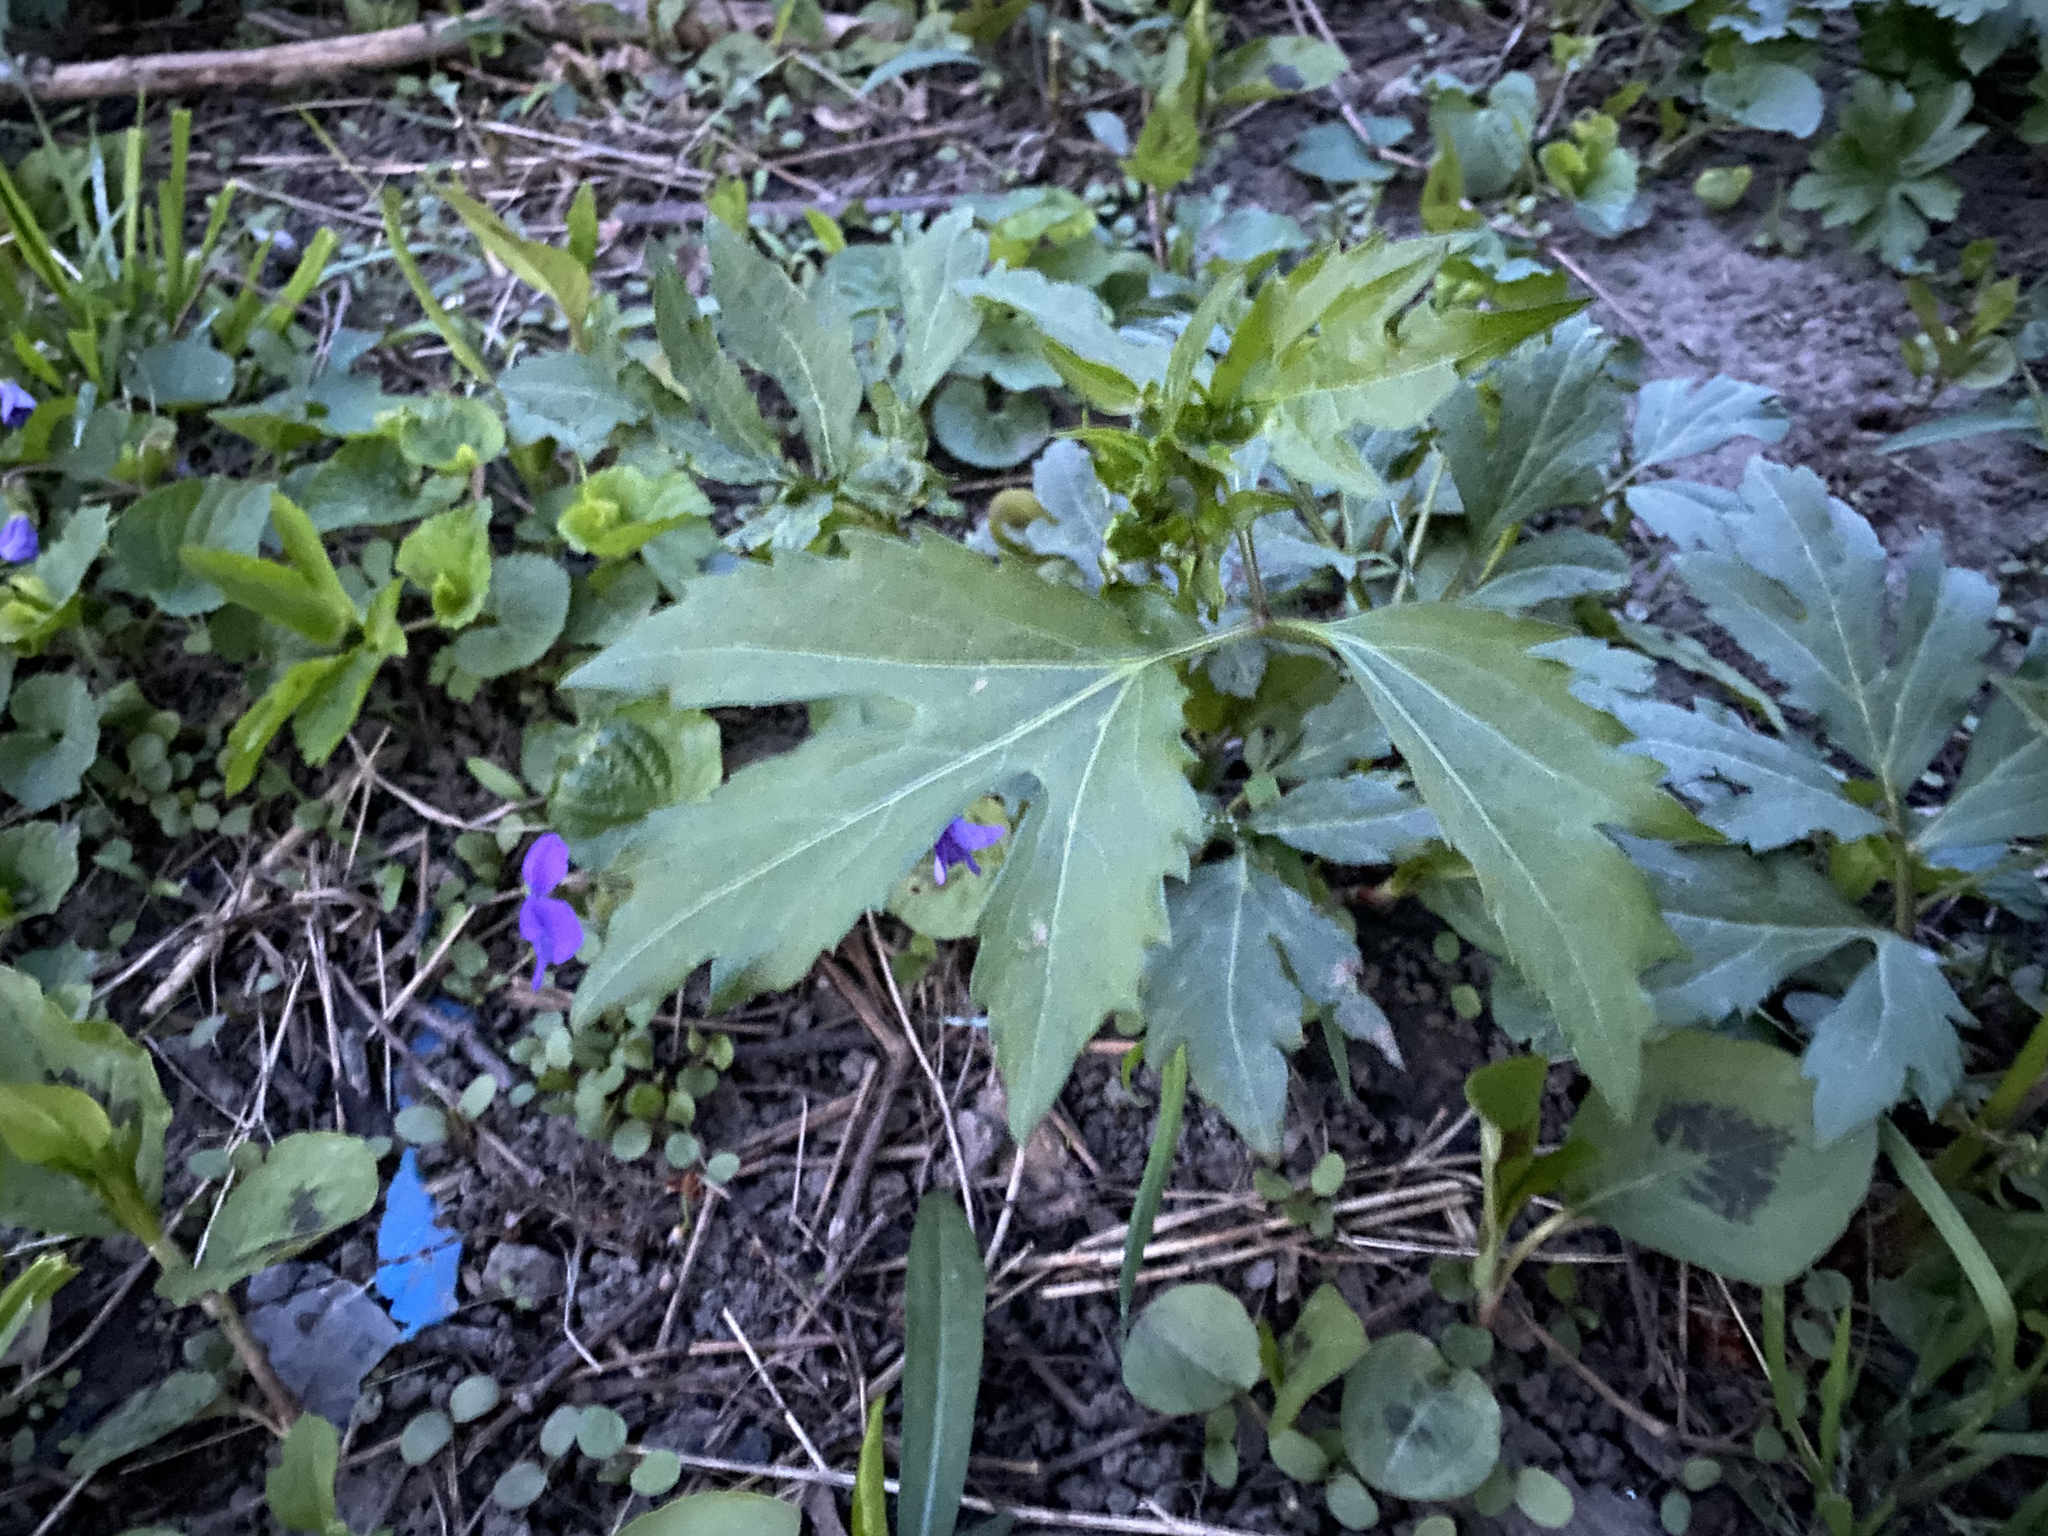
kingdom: Plantae
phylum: Tracheophyta
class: Magnoliopsida
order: Asterales
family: Asteraceae
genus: Rudbeckia
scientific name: Rudbeckia laciniata
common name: Coneflower
